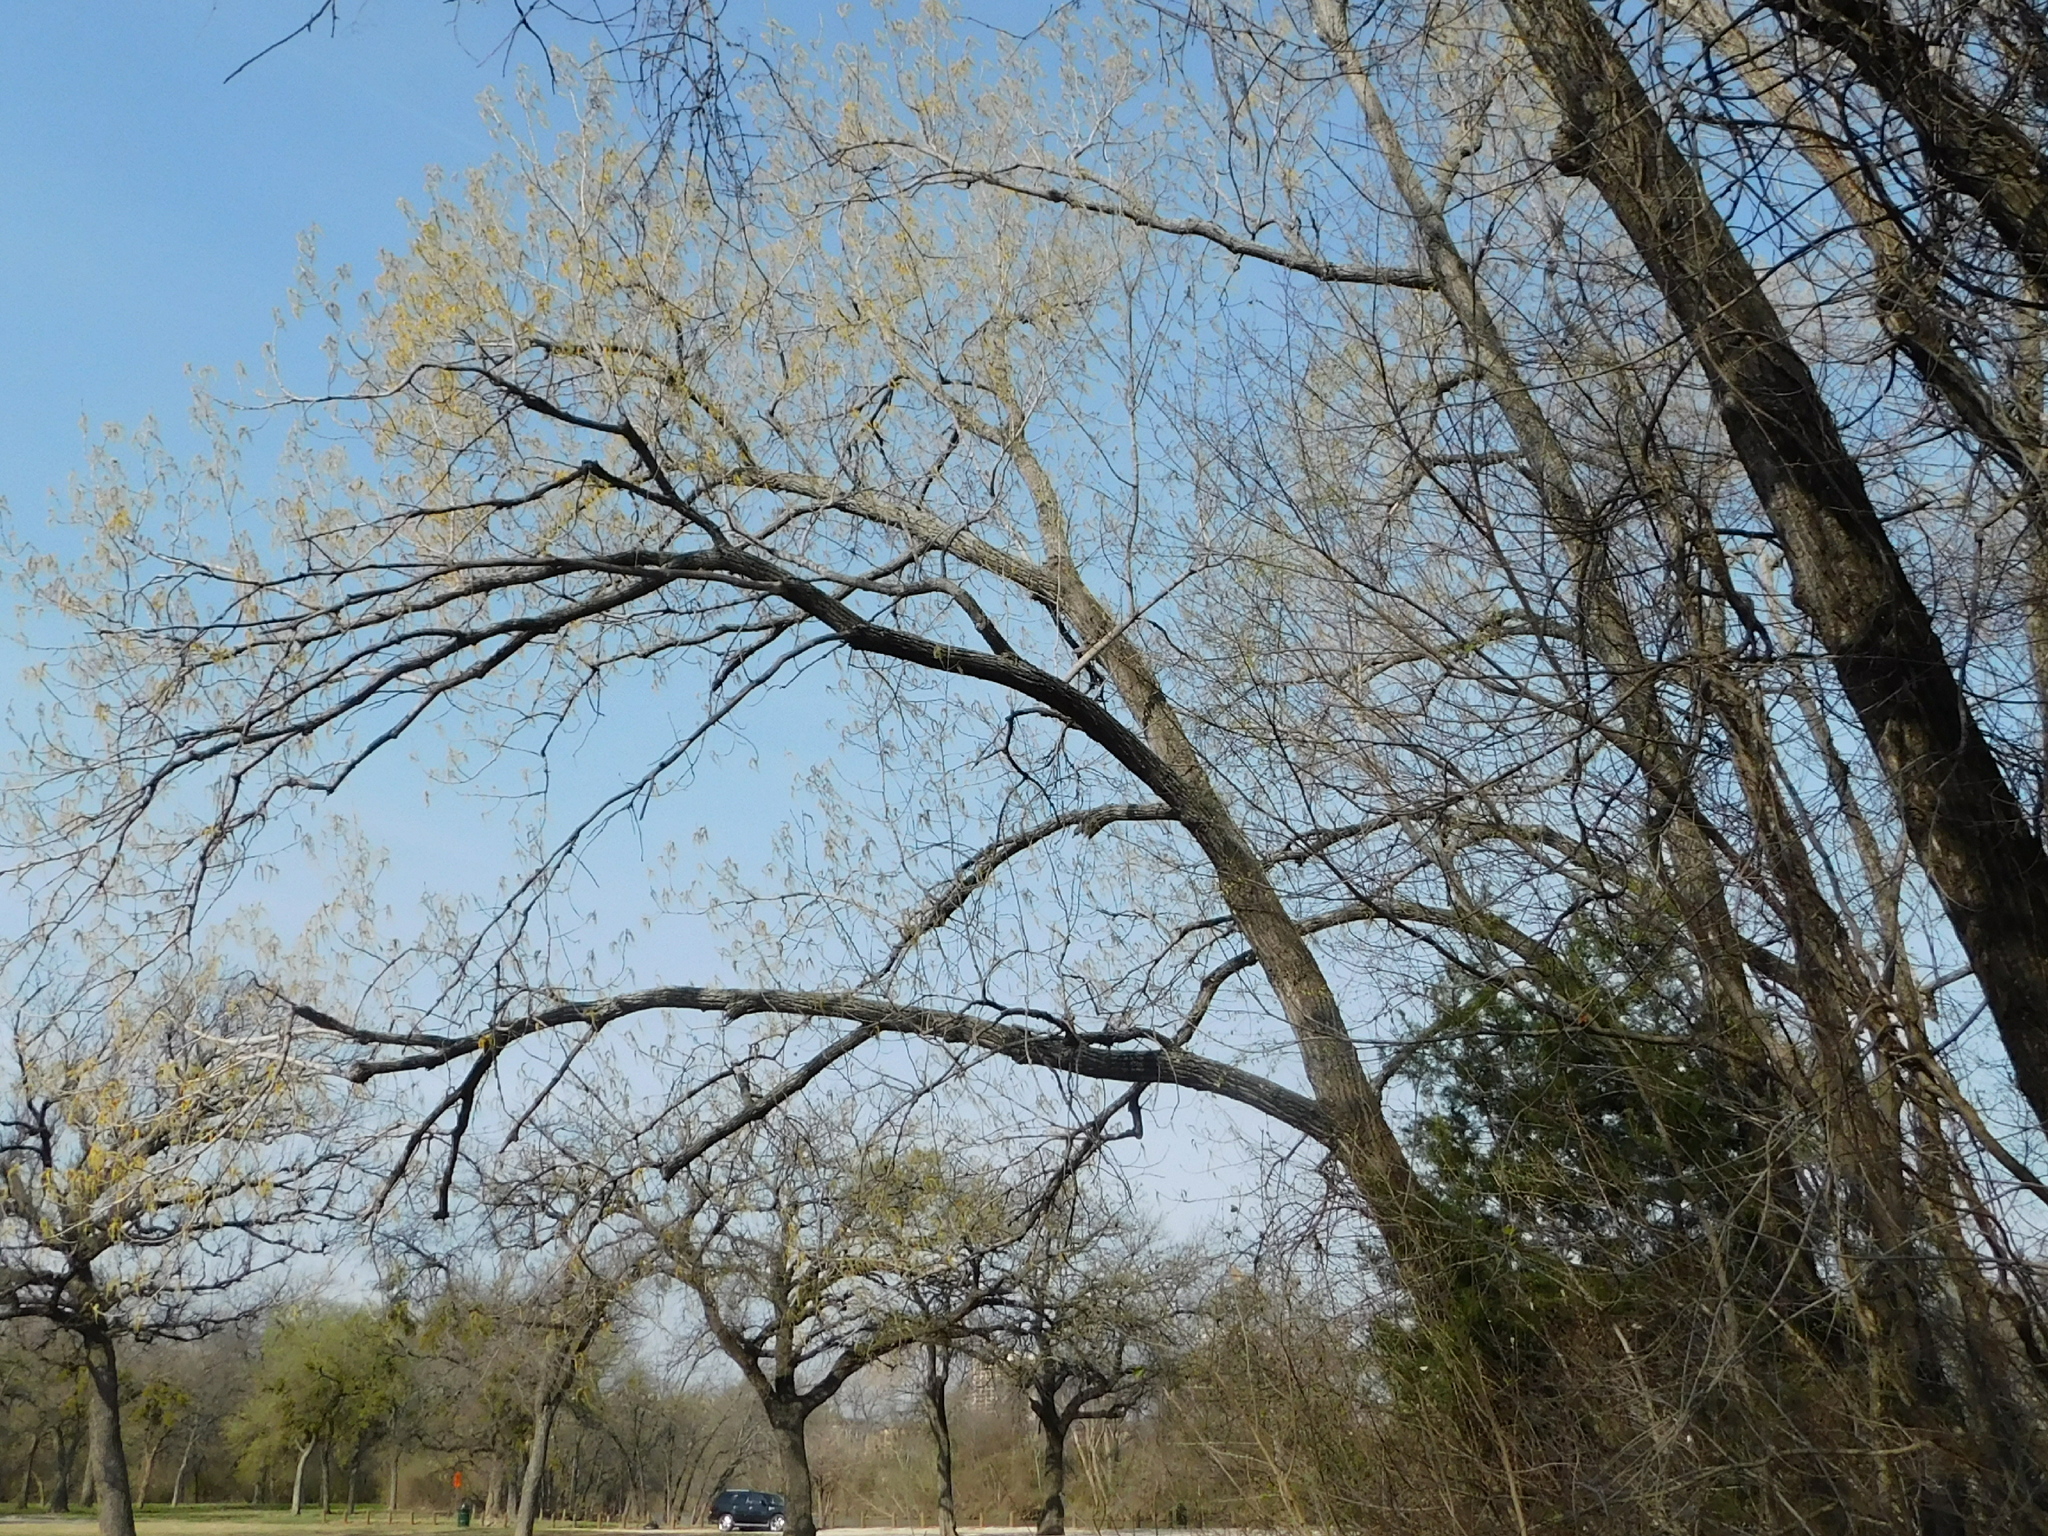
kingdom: Plantae
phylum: Tracheophyta
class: Magnoliopsida
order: Malpighiales
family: Salicaceae
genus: Populus
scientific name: Populus deltoides
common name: Eastern cottonwood
